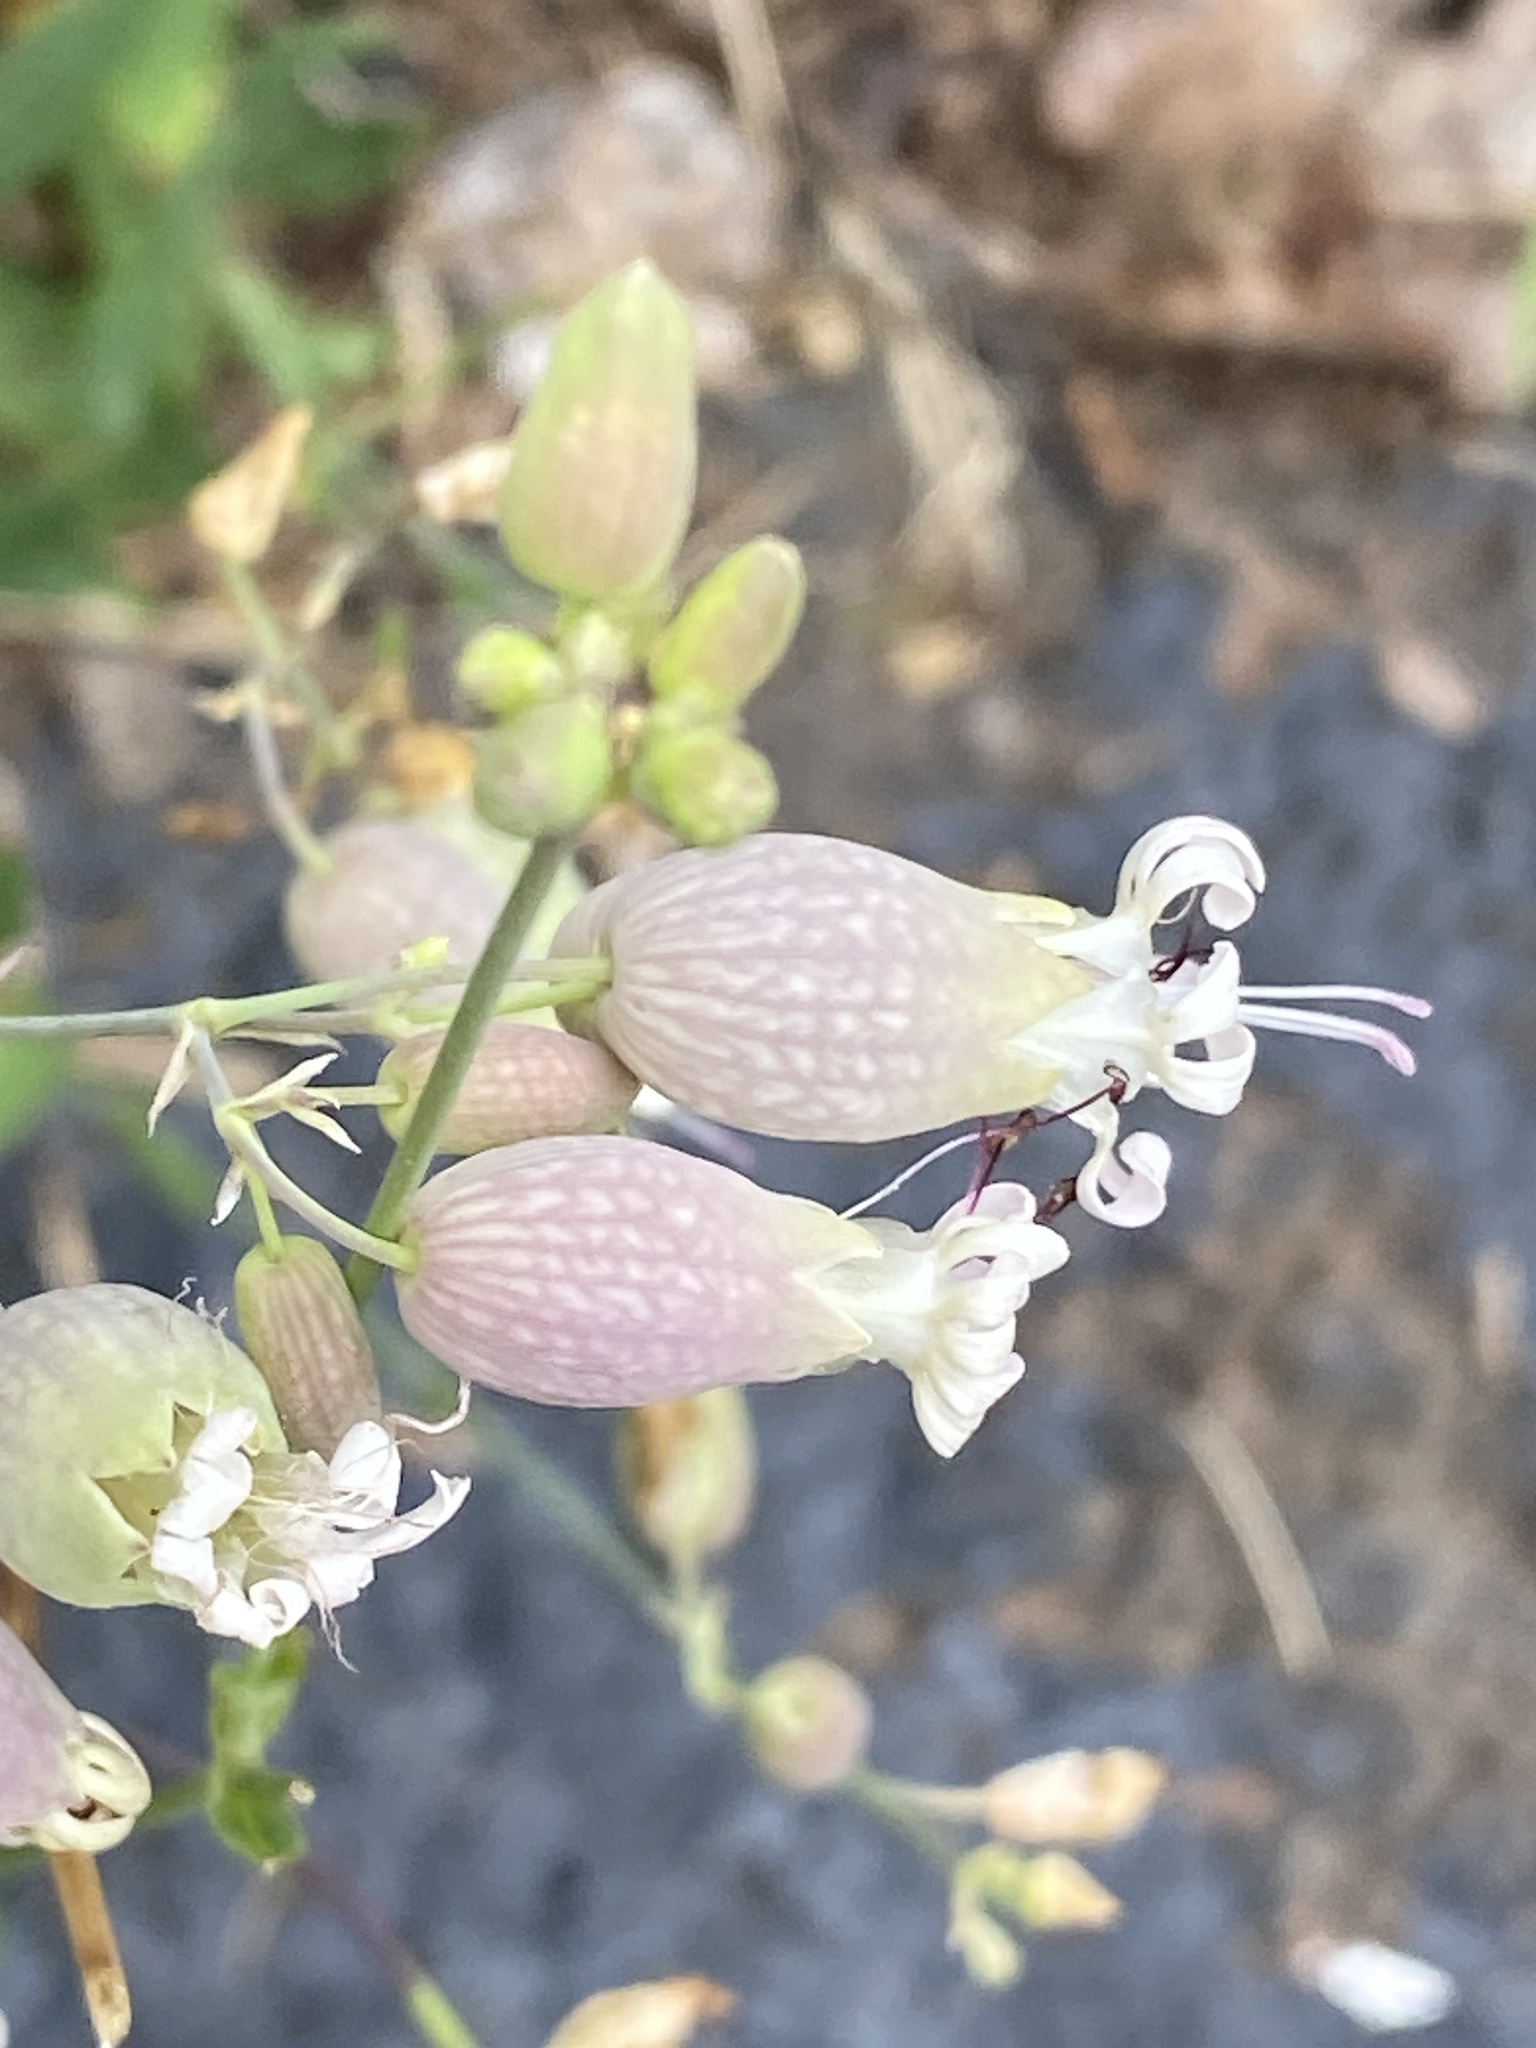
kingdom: Plantae
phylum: Tracheophyta
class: Magnoliopsida
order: Caryophyllales
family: Caryophyllaceae
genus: Silene
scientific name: Silene vulgaris
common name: Bladder campion
